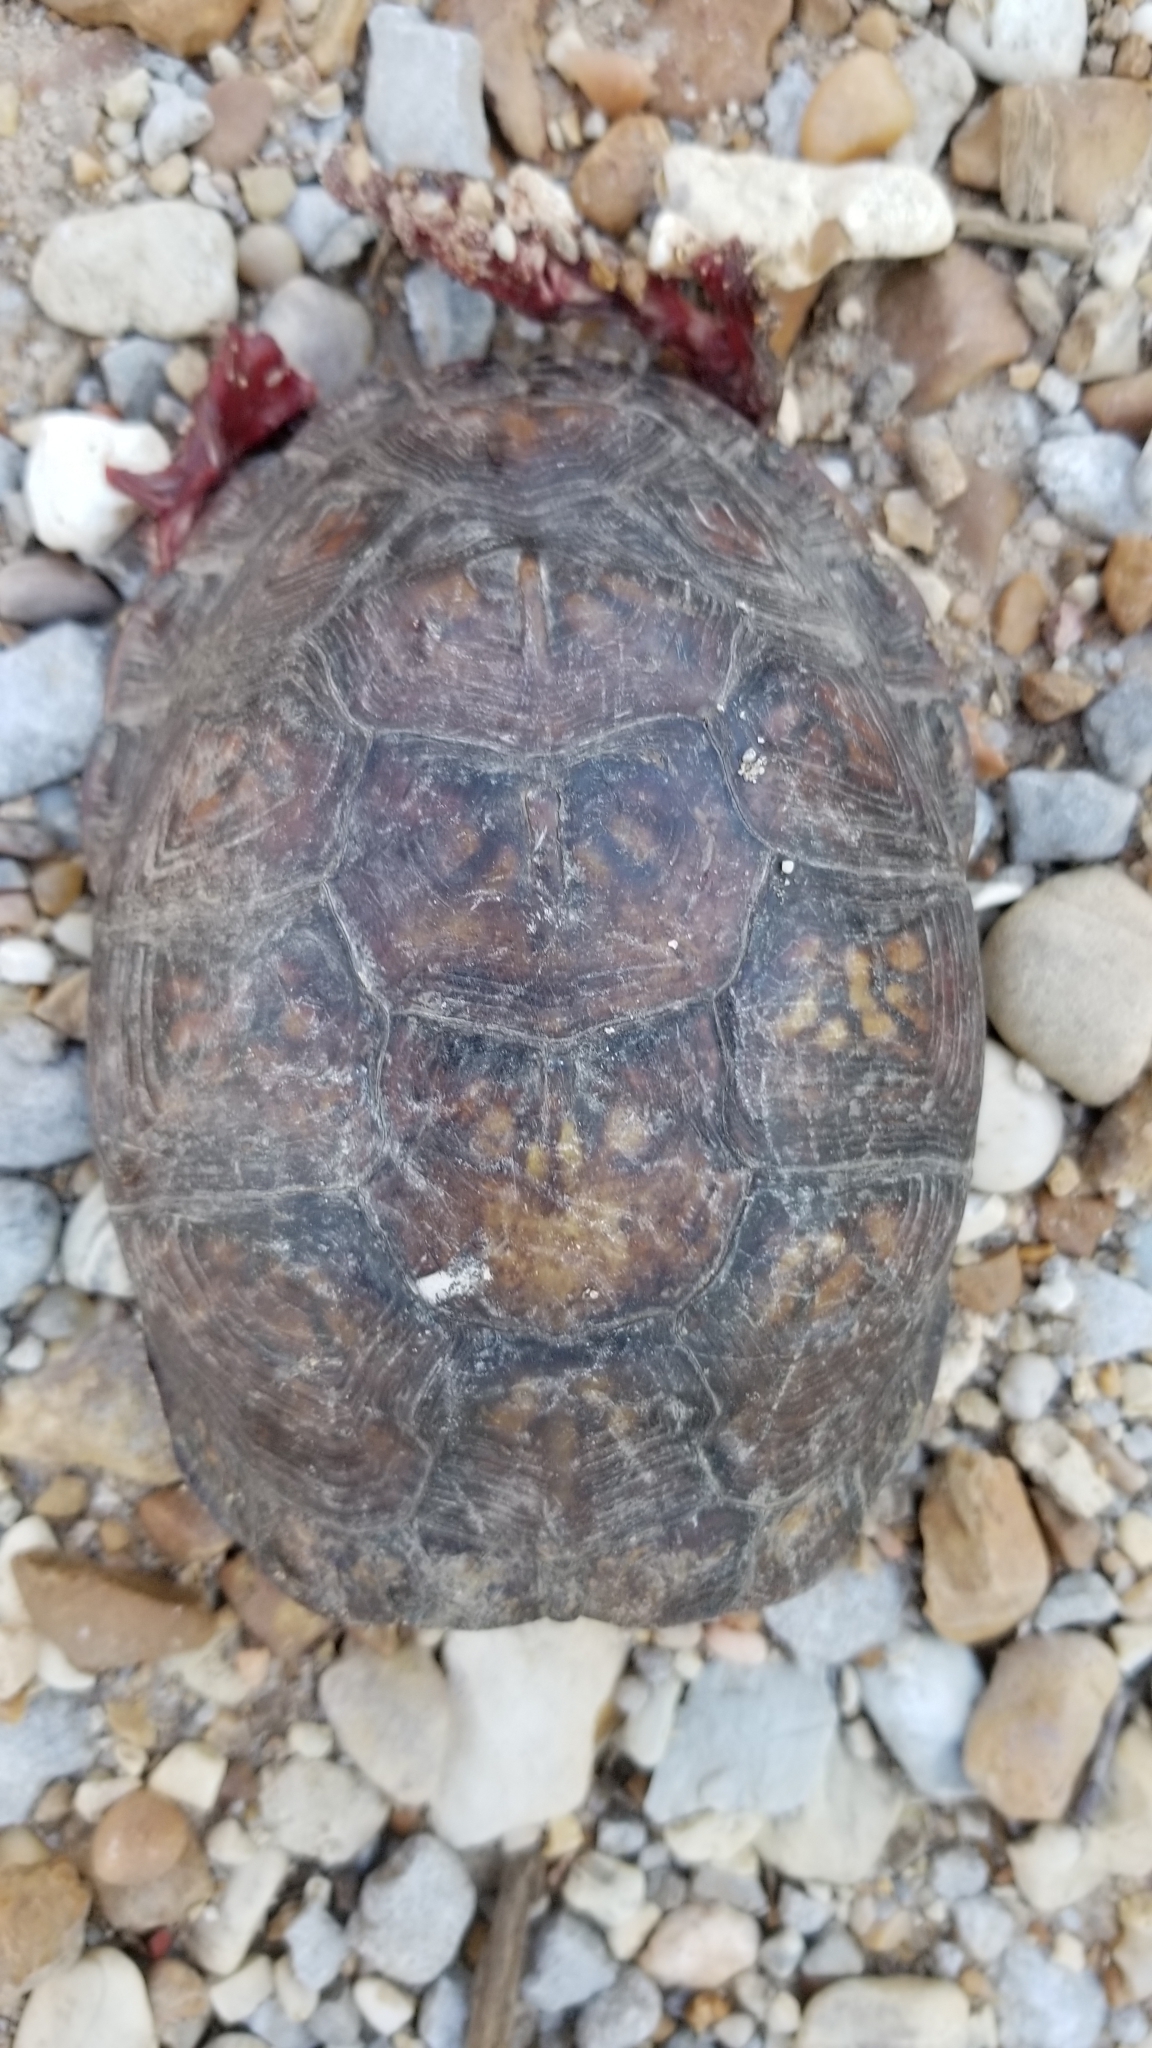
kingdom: Animalia
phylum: Chordata
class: Testudines
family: Emydidae
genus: Terrapene
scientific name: Terrapene carolina
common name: Common box turtle
